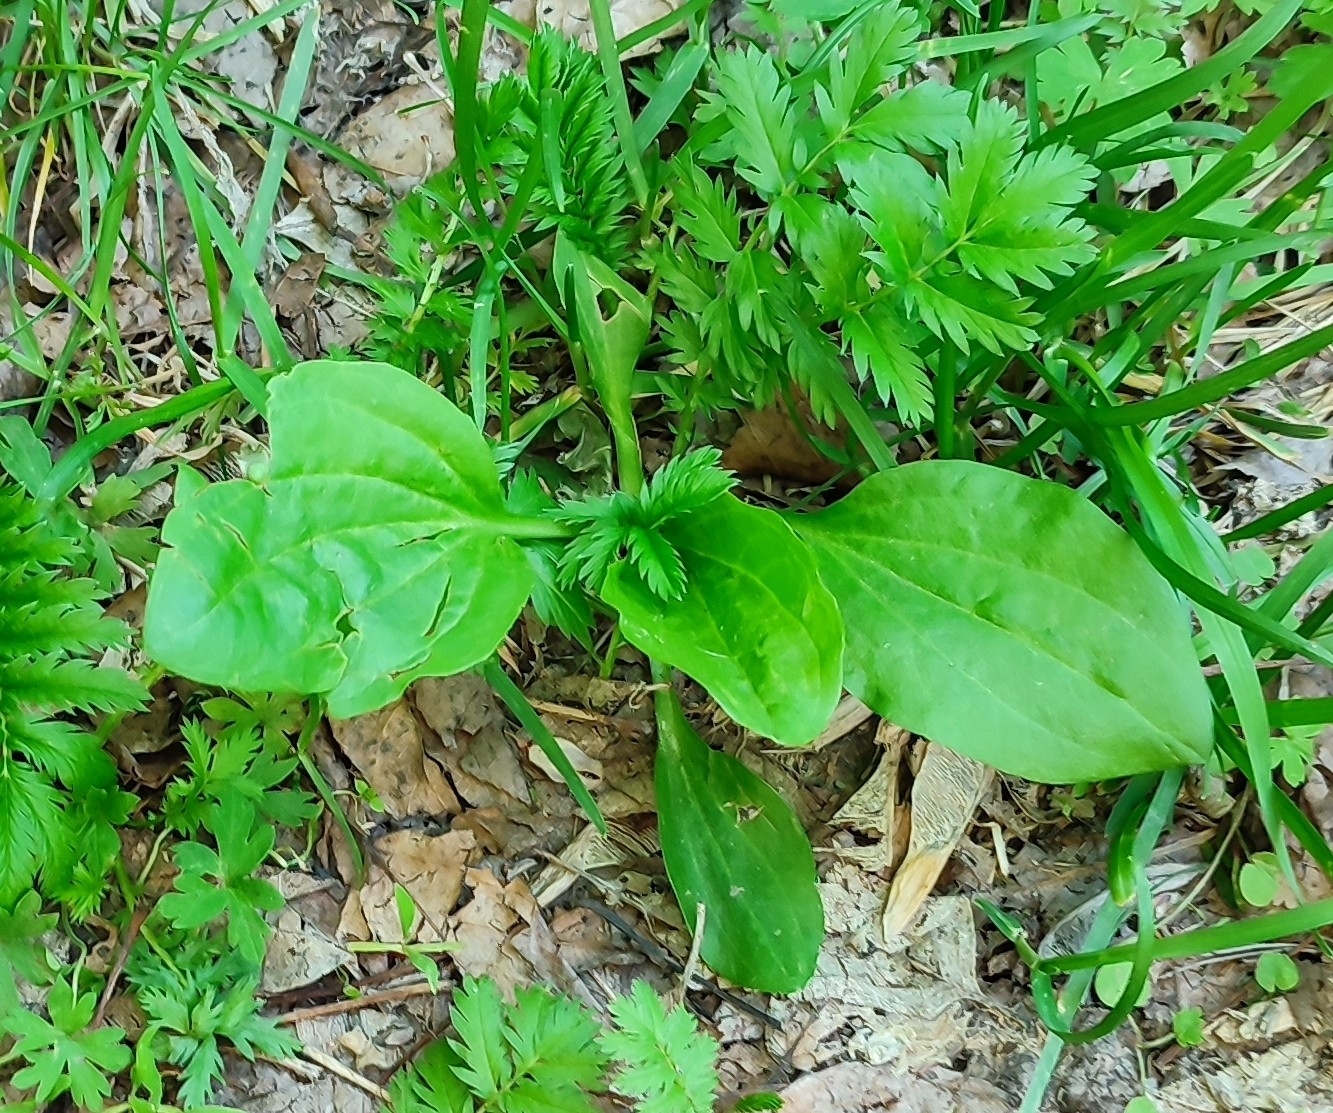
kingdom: Plantae
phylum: Tracheophyta
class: Magnoliopsida
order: Lamiales
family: Plantaginaceae
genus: Plantago
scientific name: Plantago major
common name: Common plantain
